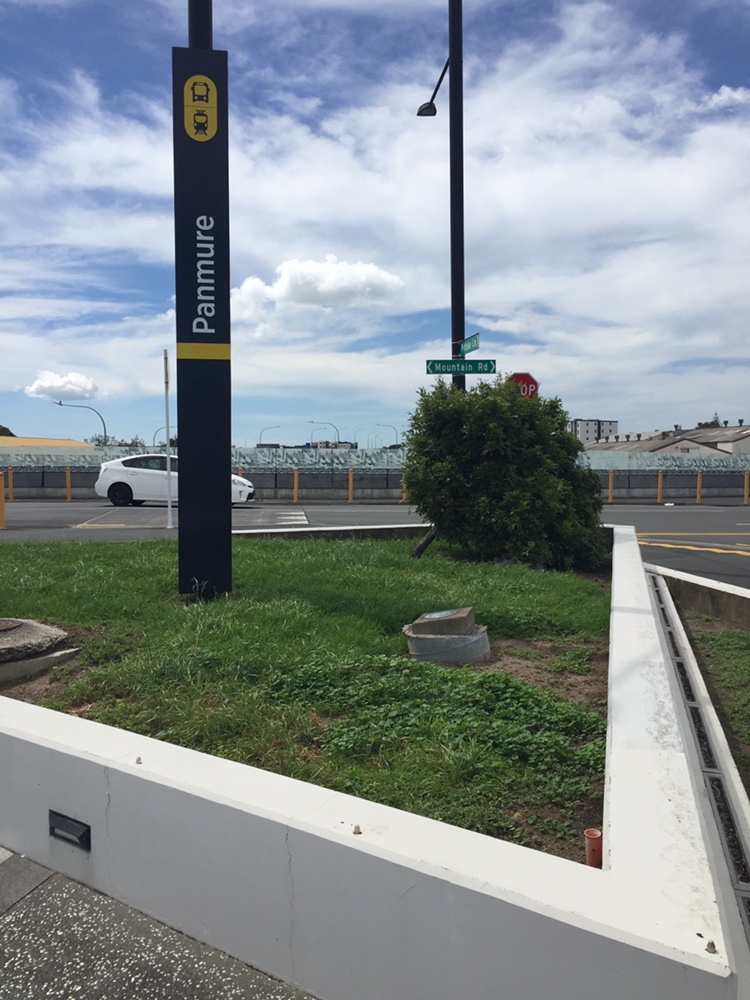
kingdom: Animalia
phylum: Arthropoda
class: Insecta
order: Coleoptera
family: Curculionidae
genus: Hypurus
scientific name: Hypurus bertrandi
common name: Weevil
